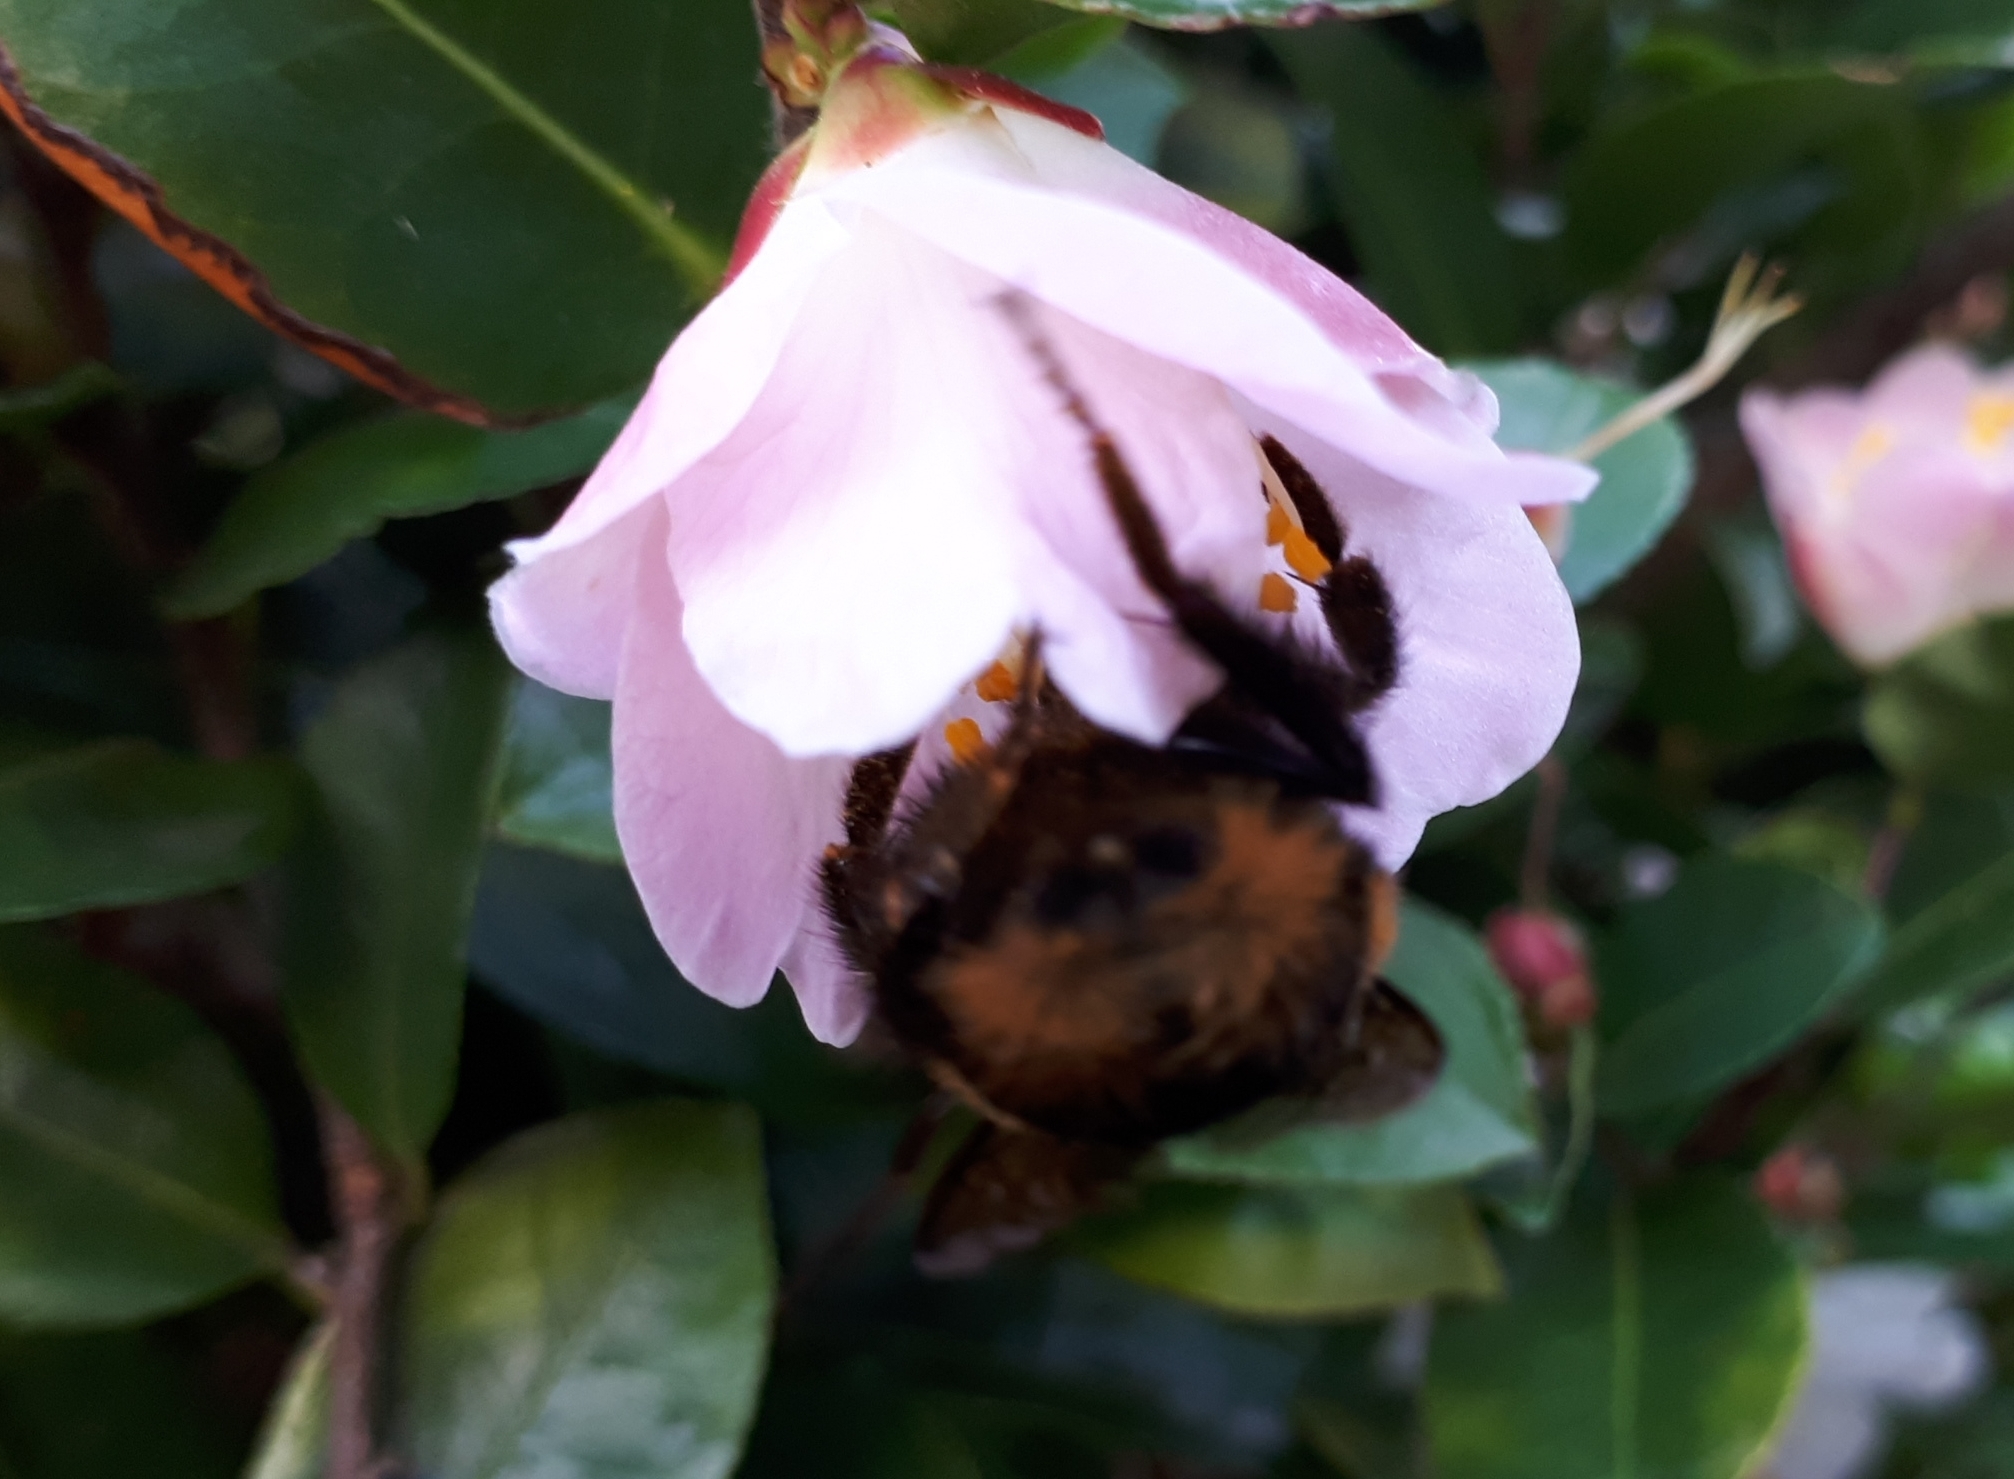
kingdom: Animalia
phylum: Arthropoda
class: Insecta
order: Hymenoptera
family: Apidae
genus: Bombus
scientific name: Bombus terrestris
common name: Buff-tailed bumblebee
